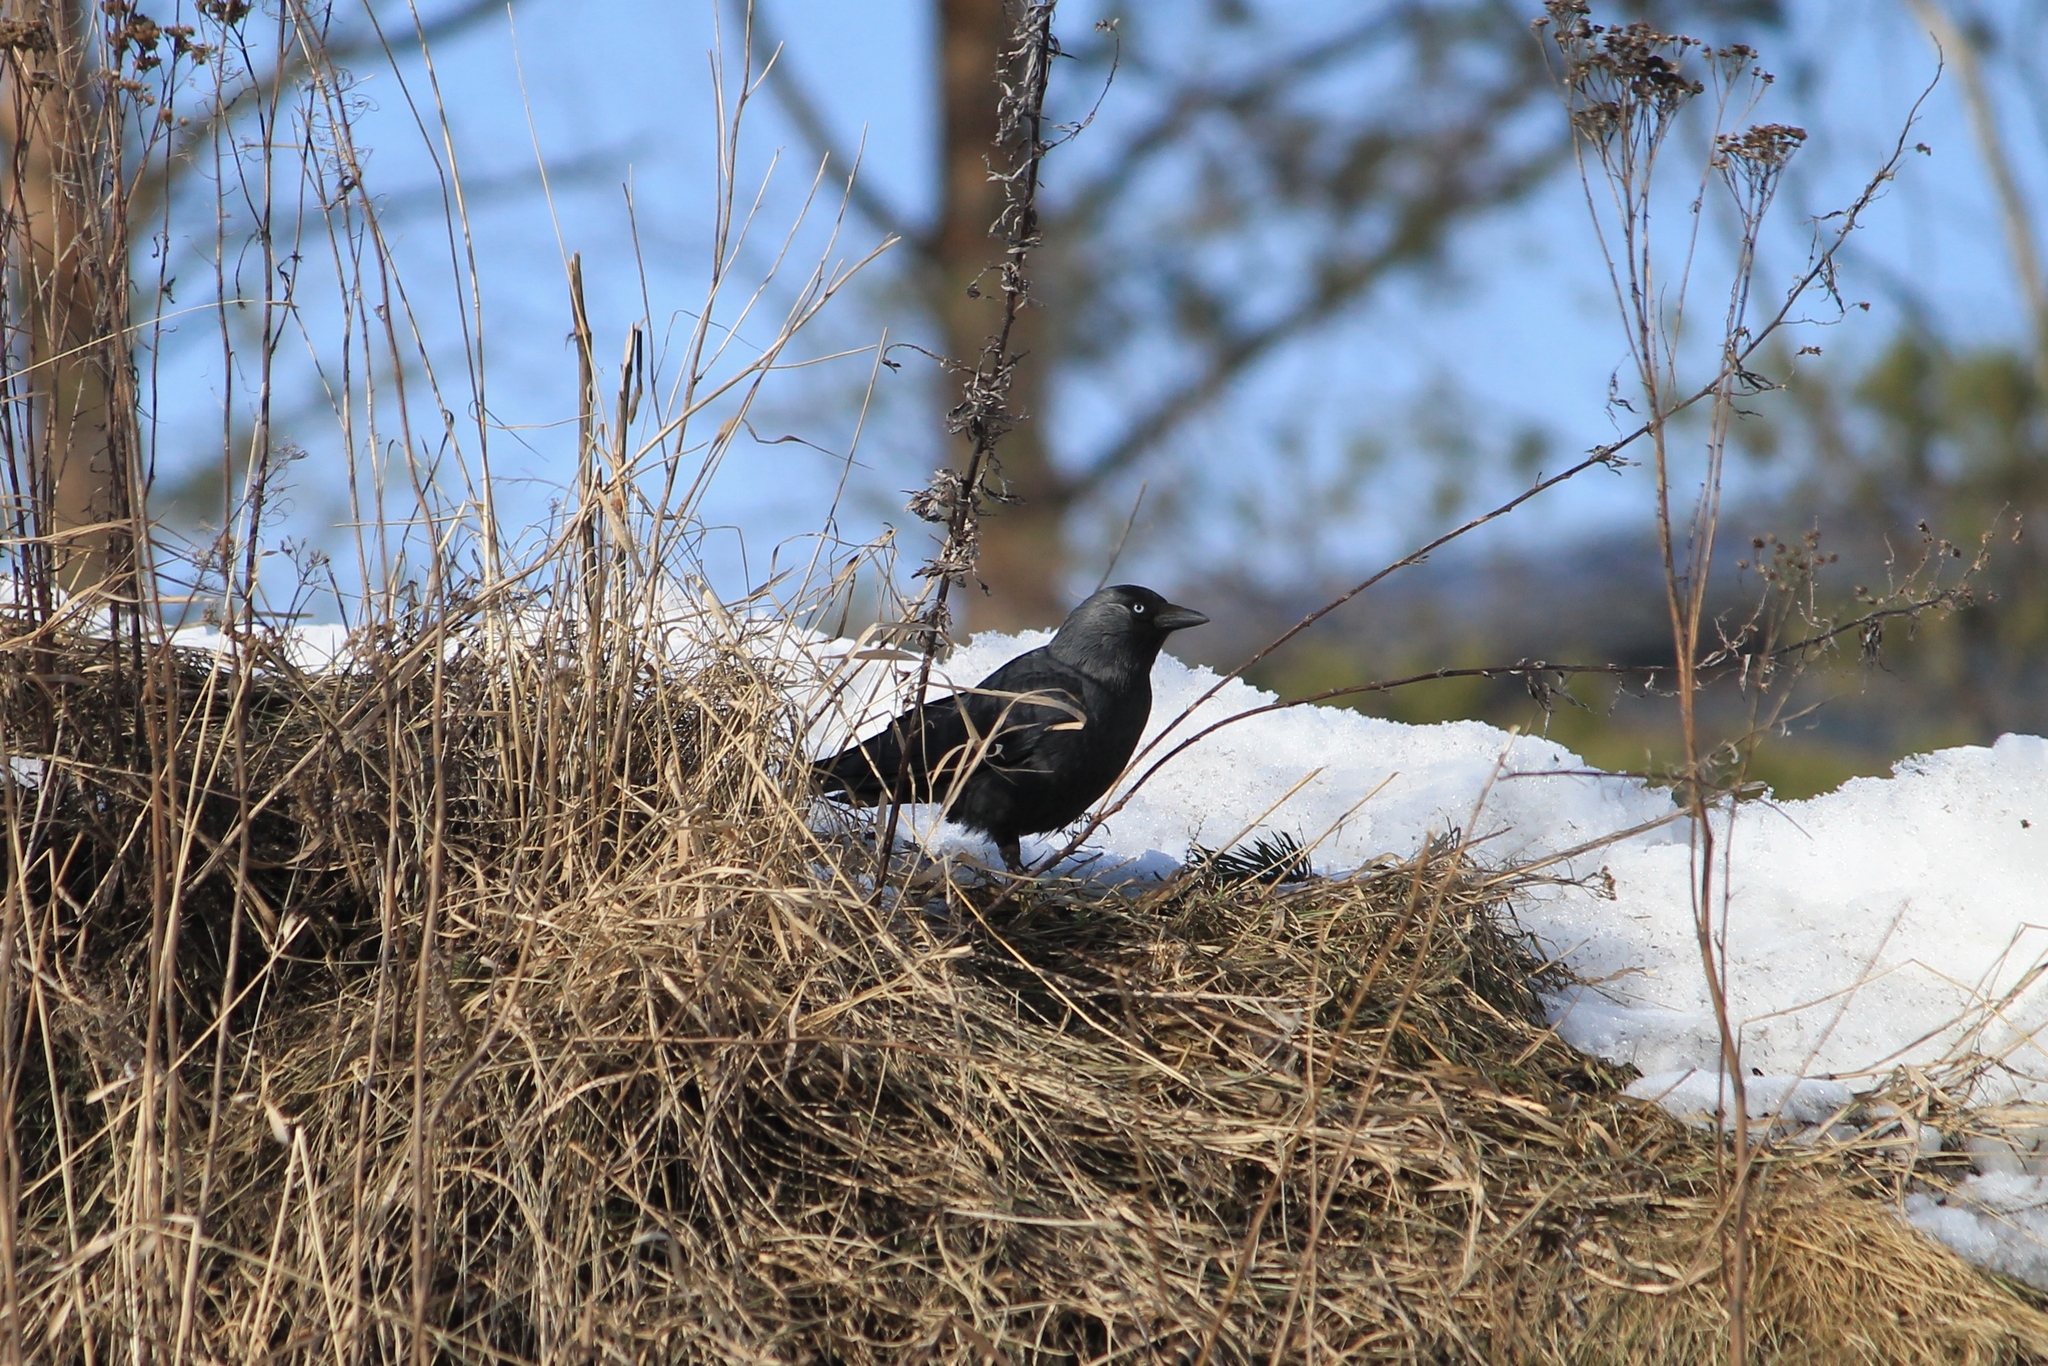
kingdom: Animalia
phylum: Chordata
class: Aves
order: Passeriformes
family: Corvidae
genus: Coloeus
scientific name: Coloeus monedula
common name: Western jackdaw
